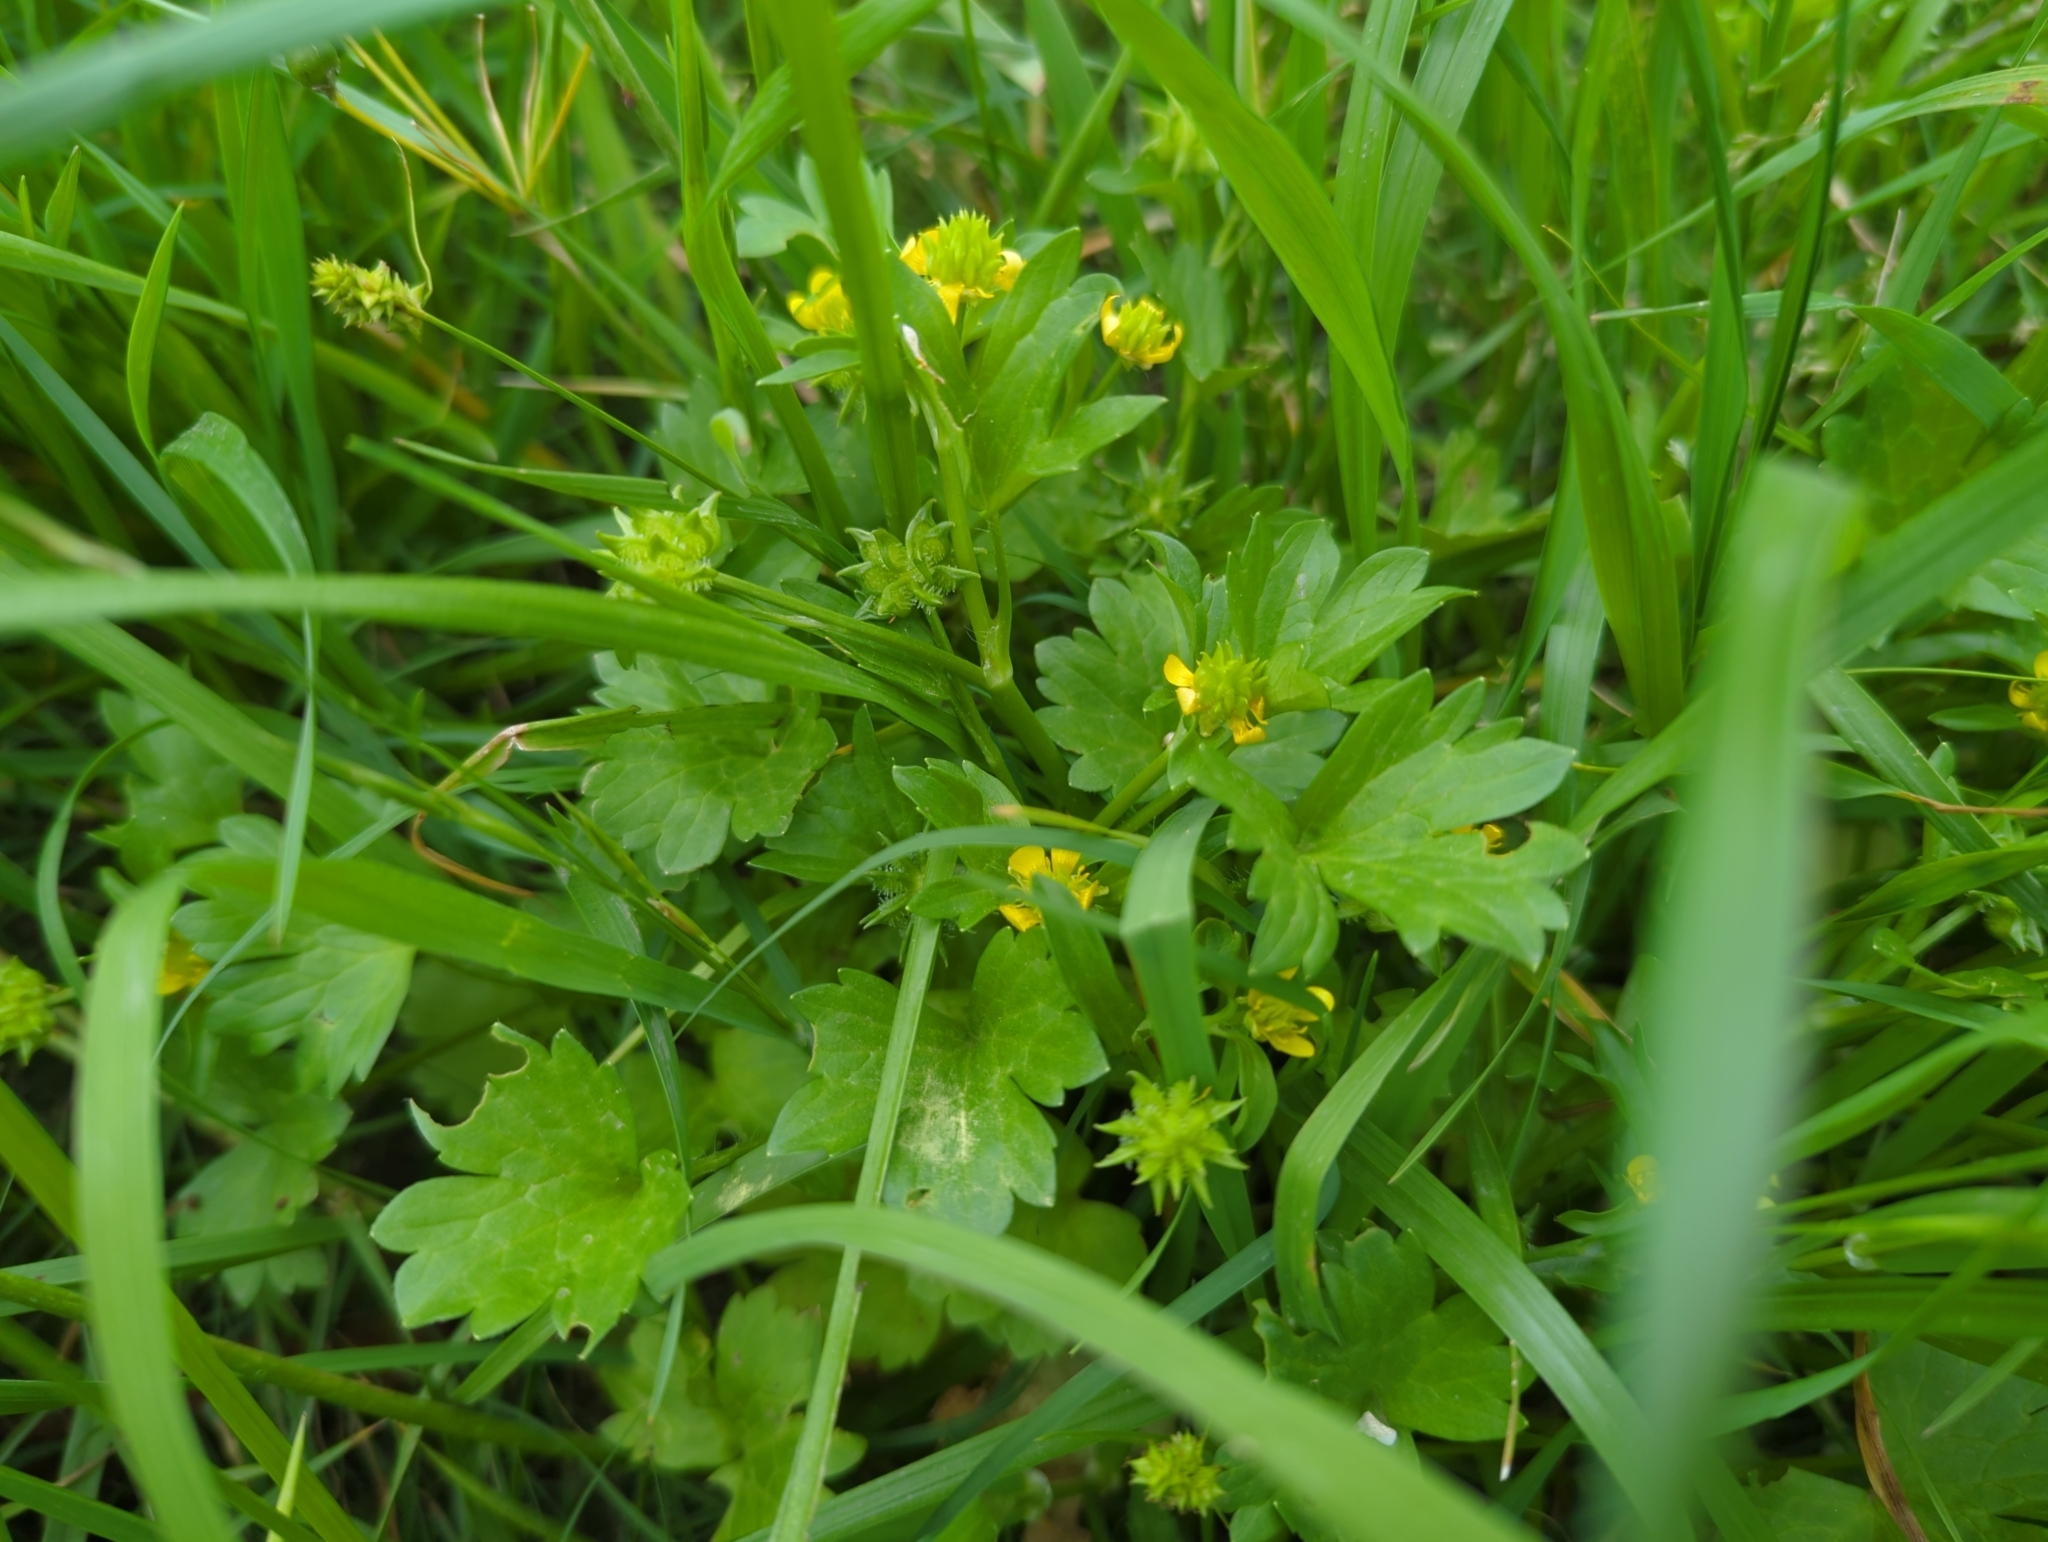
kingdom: Plantae
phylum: Tracheophyta
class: Magnoliopsida
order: Ranunculales
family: Ranunculaceae
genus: Ranunculus
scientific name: Ranunculus muricatus
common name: Rough-fruited buttercup
